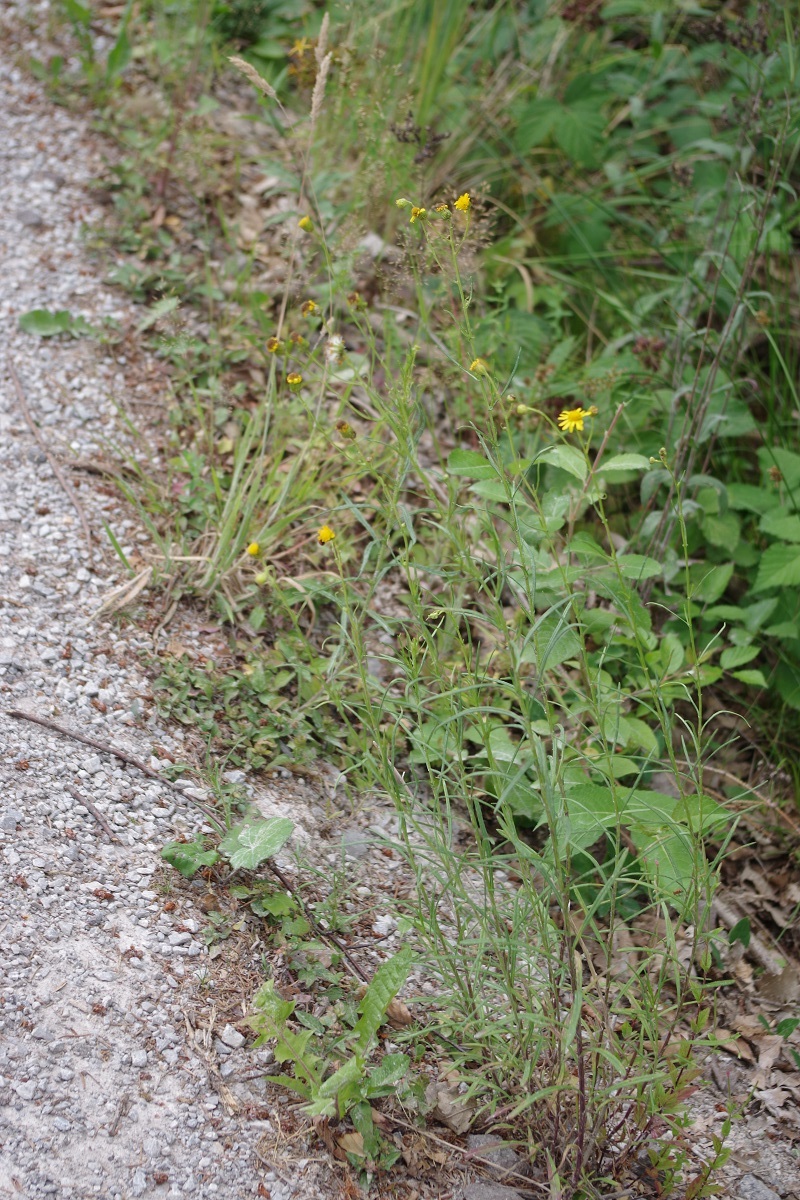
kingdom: Plantae
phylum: Tracheophyta
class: Magnoliopsida
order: Asterales
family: Asteraceae
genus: Senecio
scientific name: Senecio inaequidens
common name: Narrow-leaved ragwort
